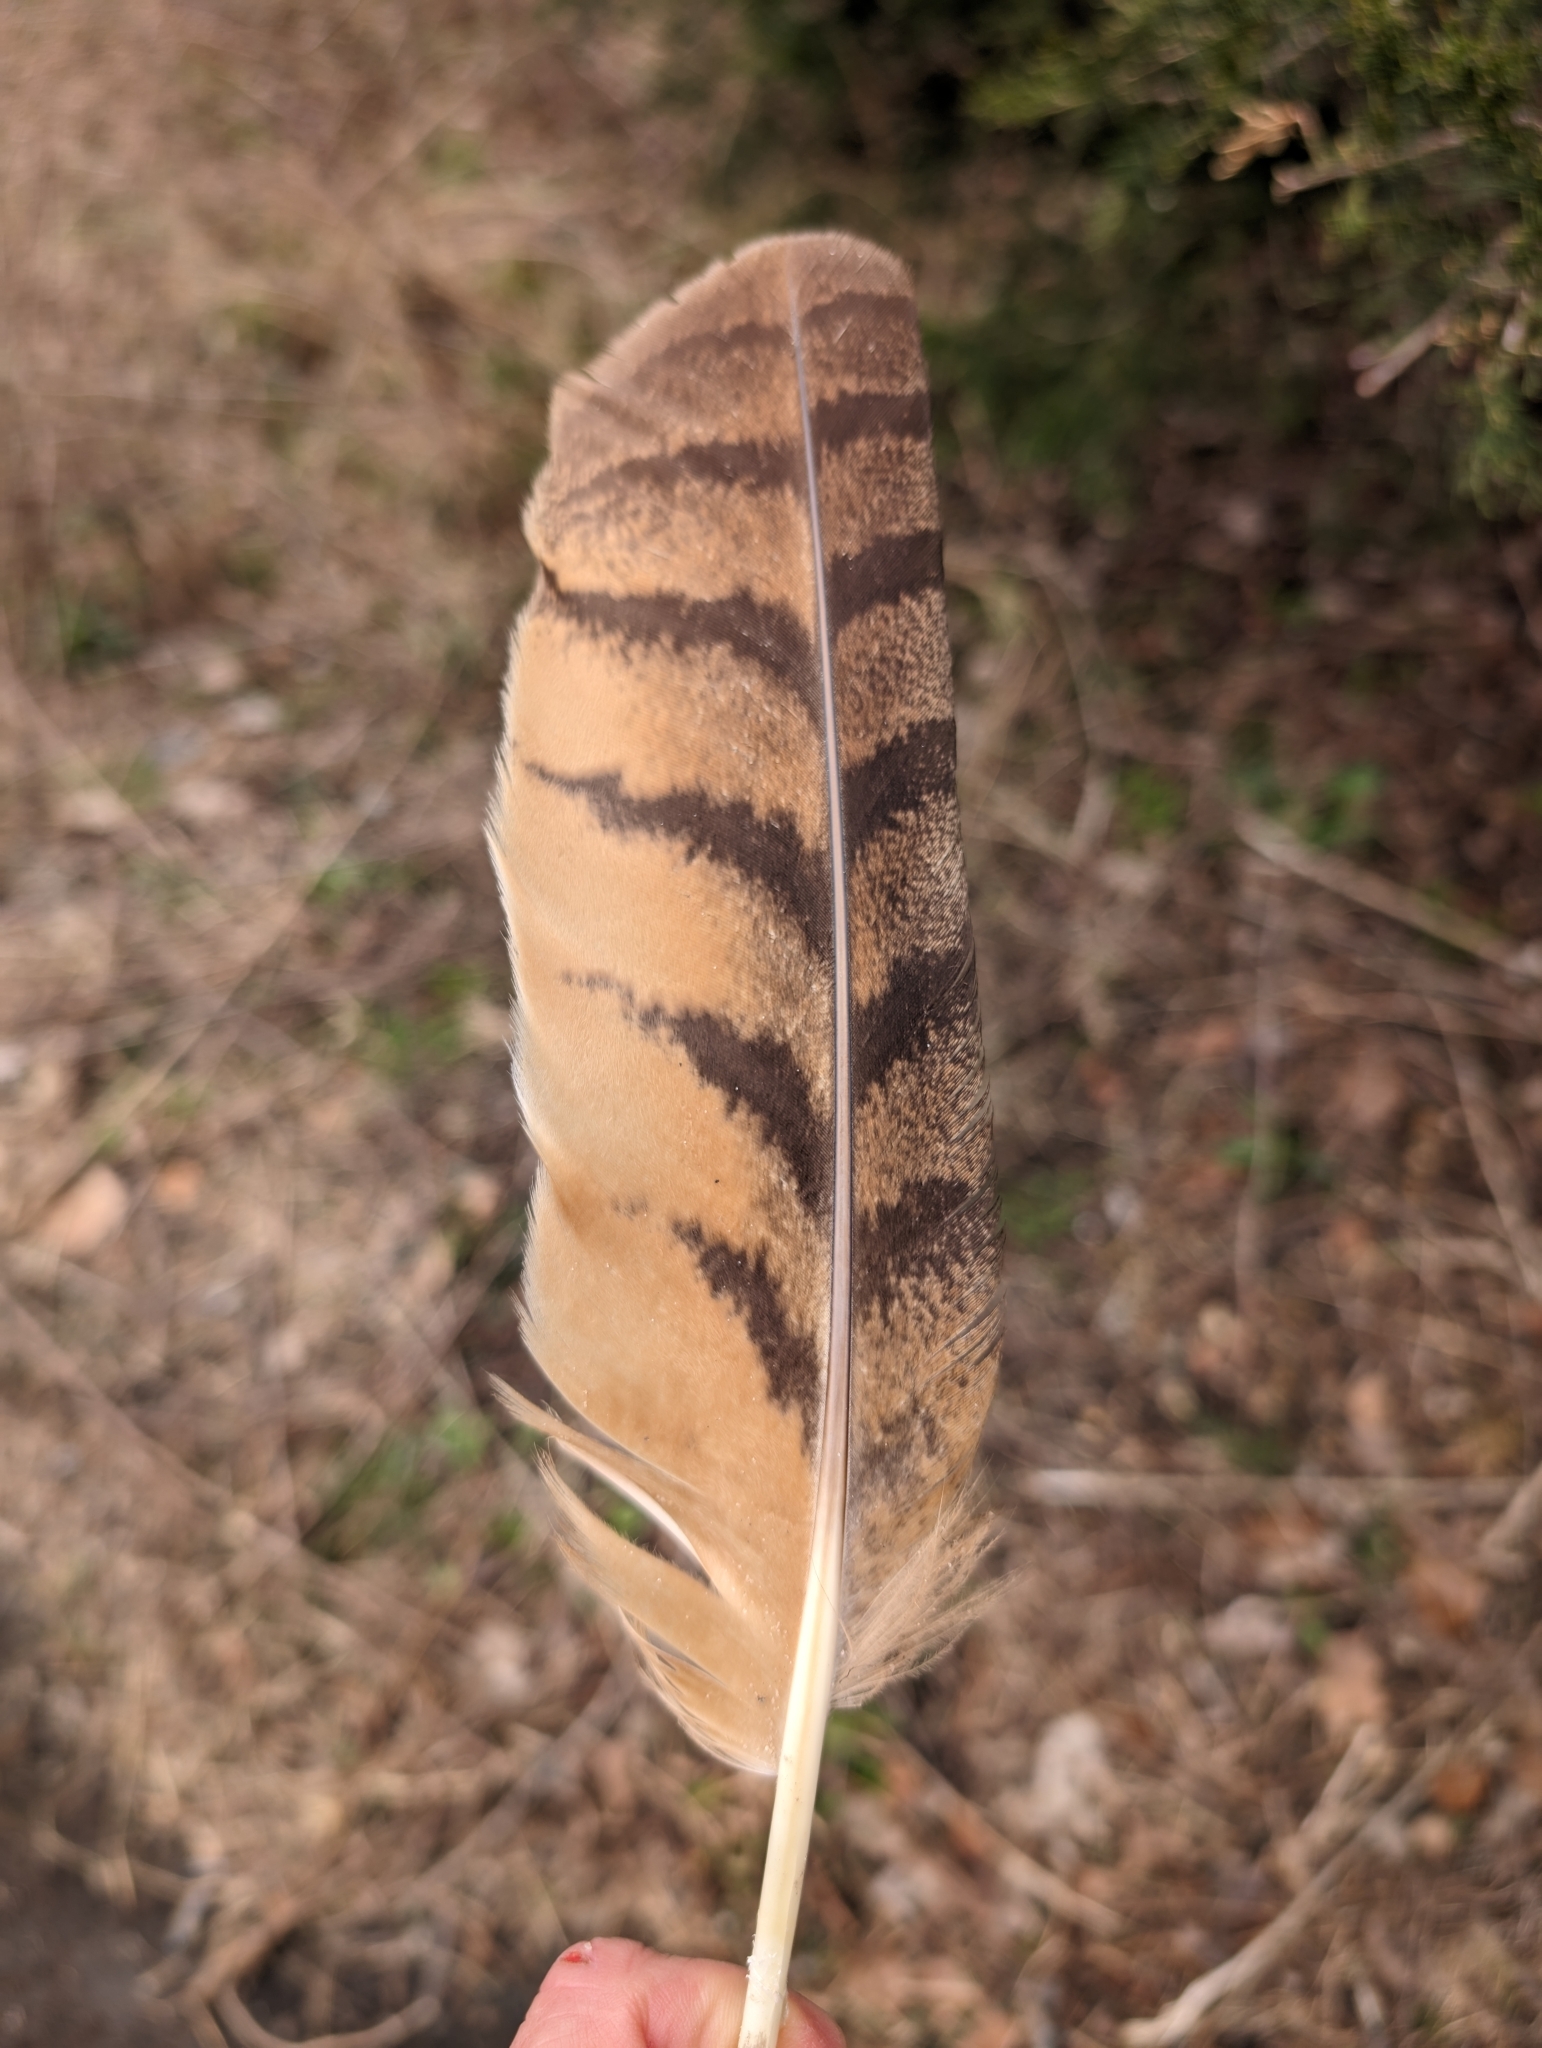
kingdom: Animalia
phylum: Chordata
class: Aves
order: Strigiformes
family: Strigidae
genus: Bubo
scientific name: Bubo virginianus
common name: Great horned owl
